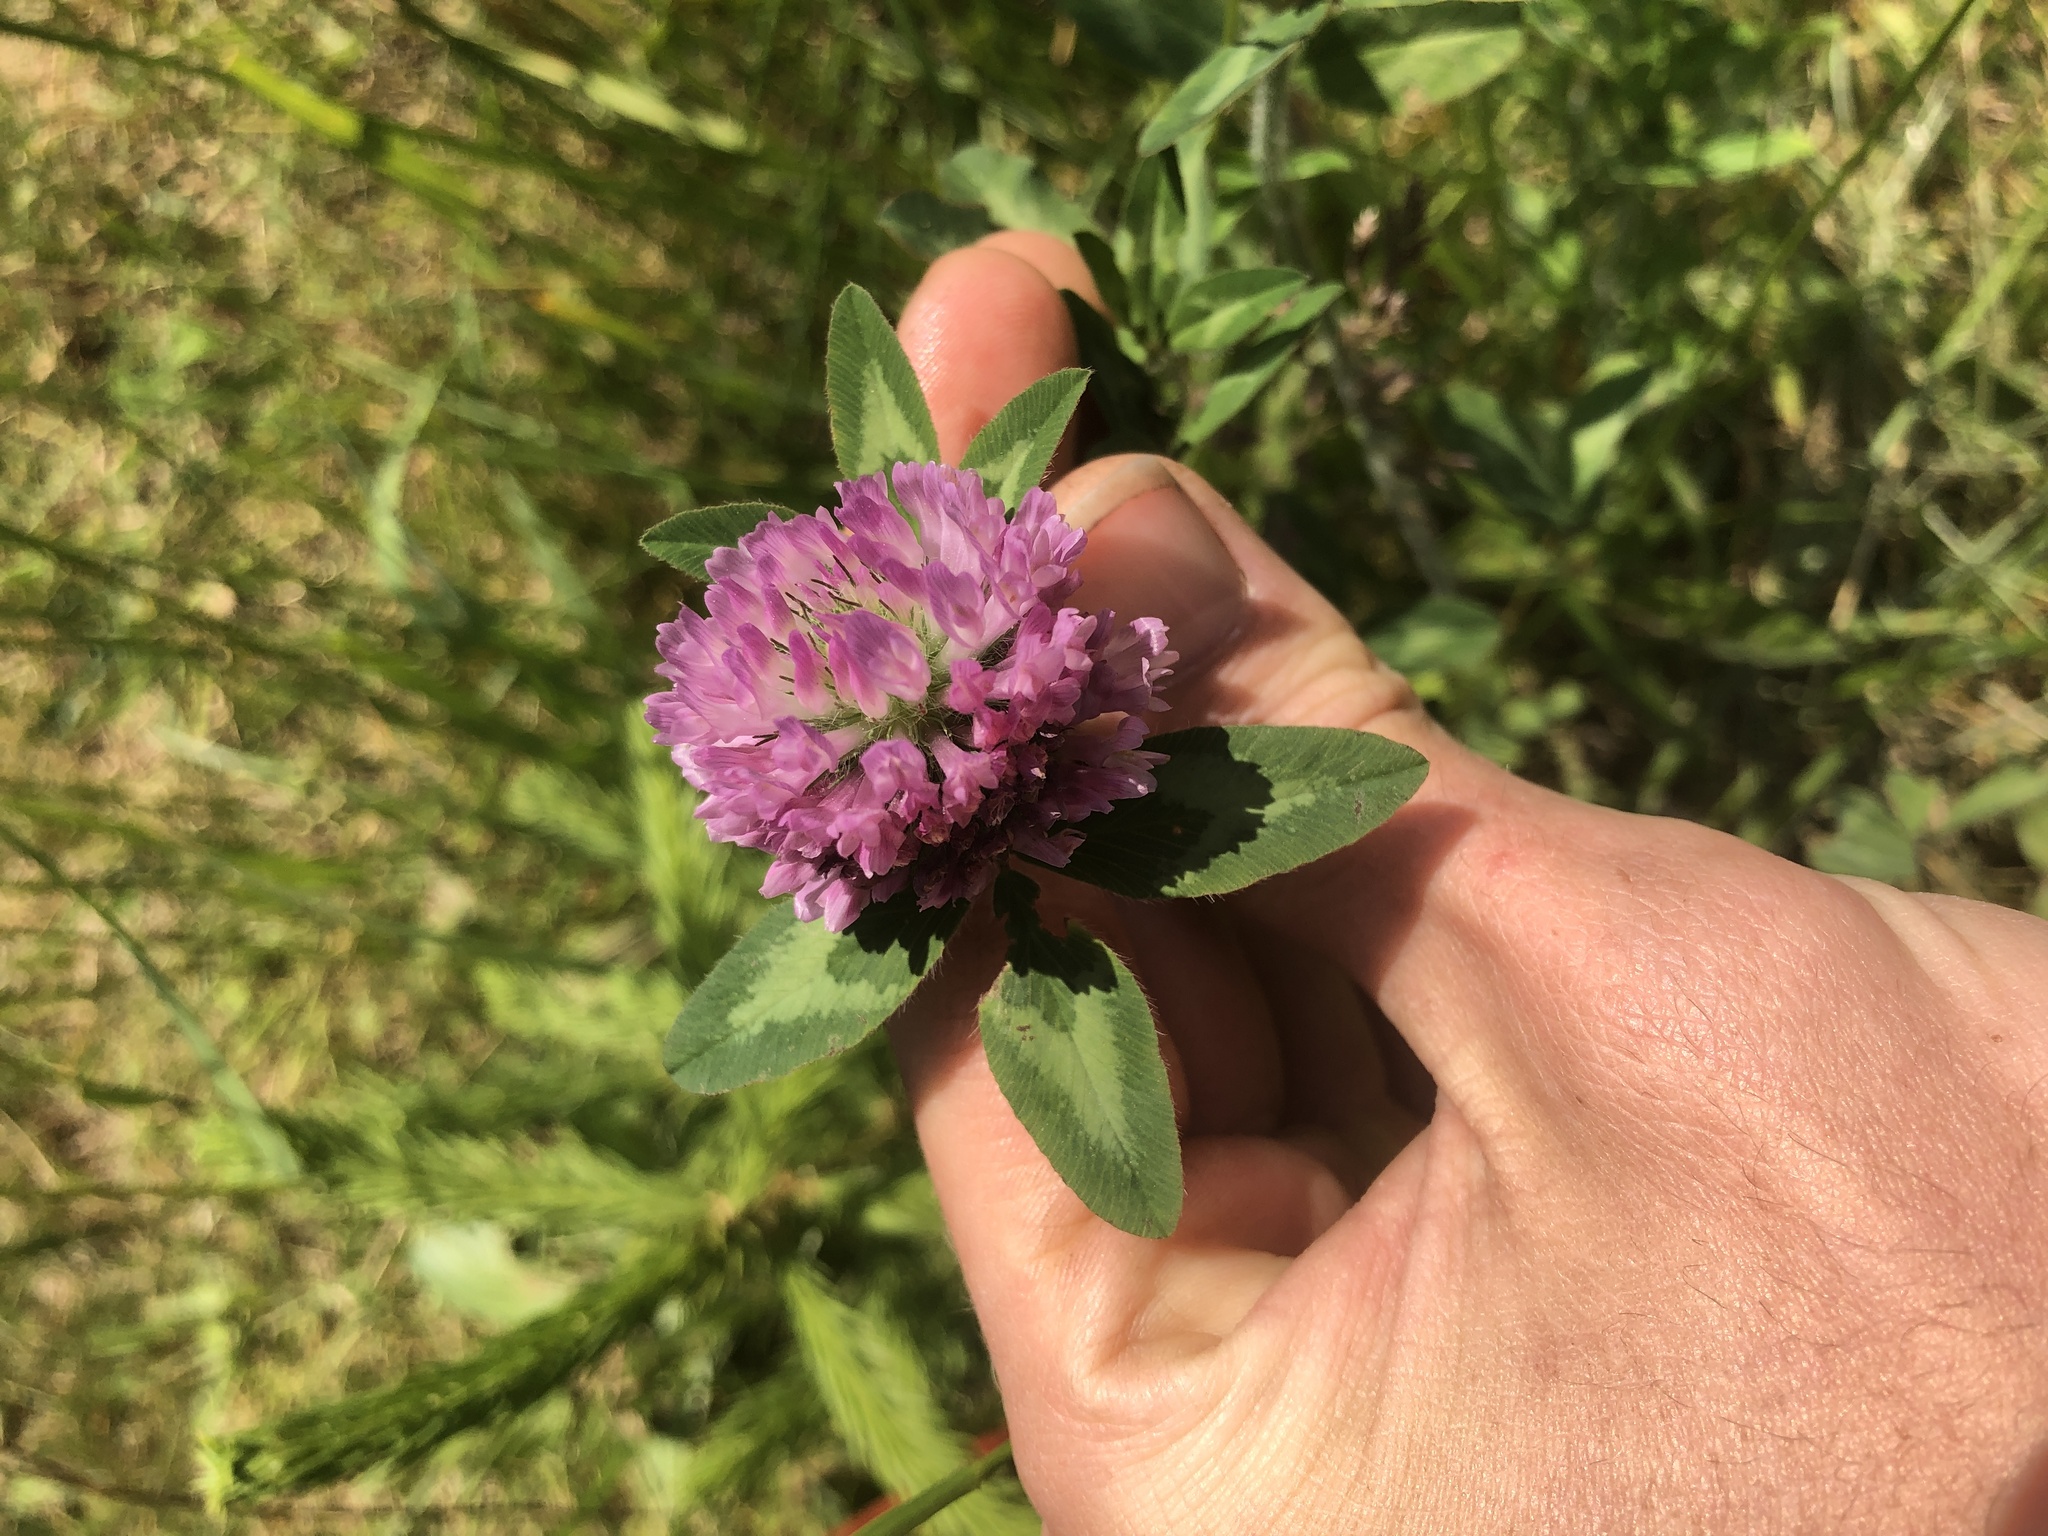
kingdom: Plantae
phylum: Tracheophyta
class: Magnoliopsida
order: Fabales
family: Fabaceae
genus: Trifolium
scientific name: Trifolium pratense
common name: Red clover
